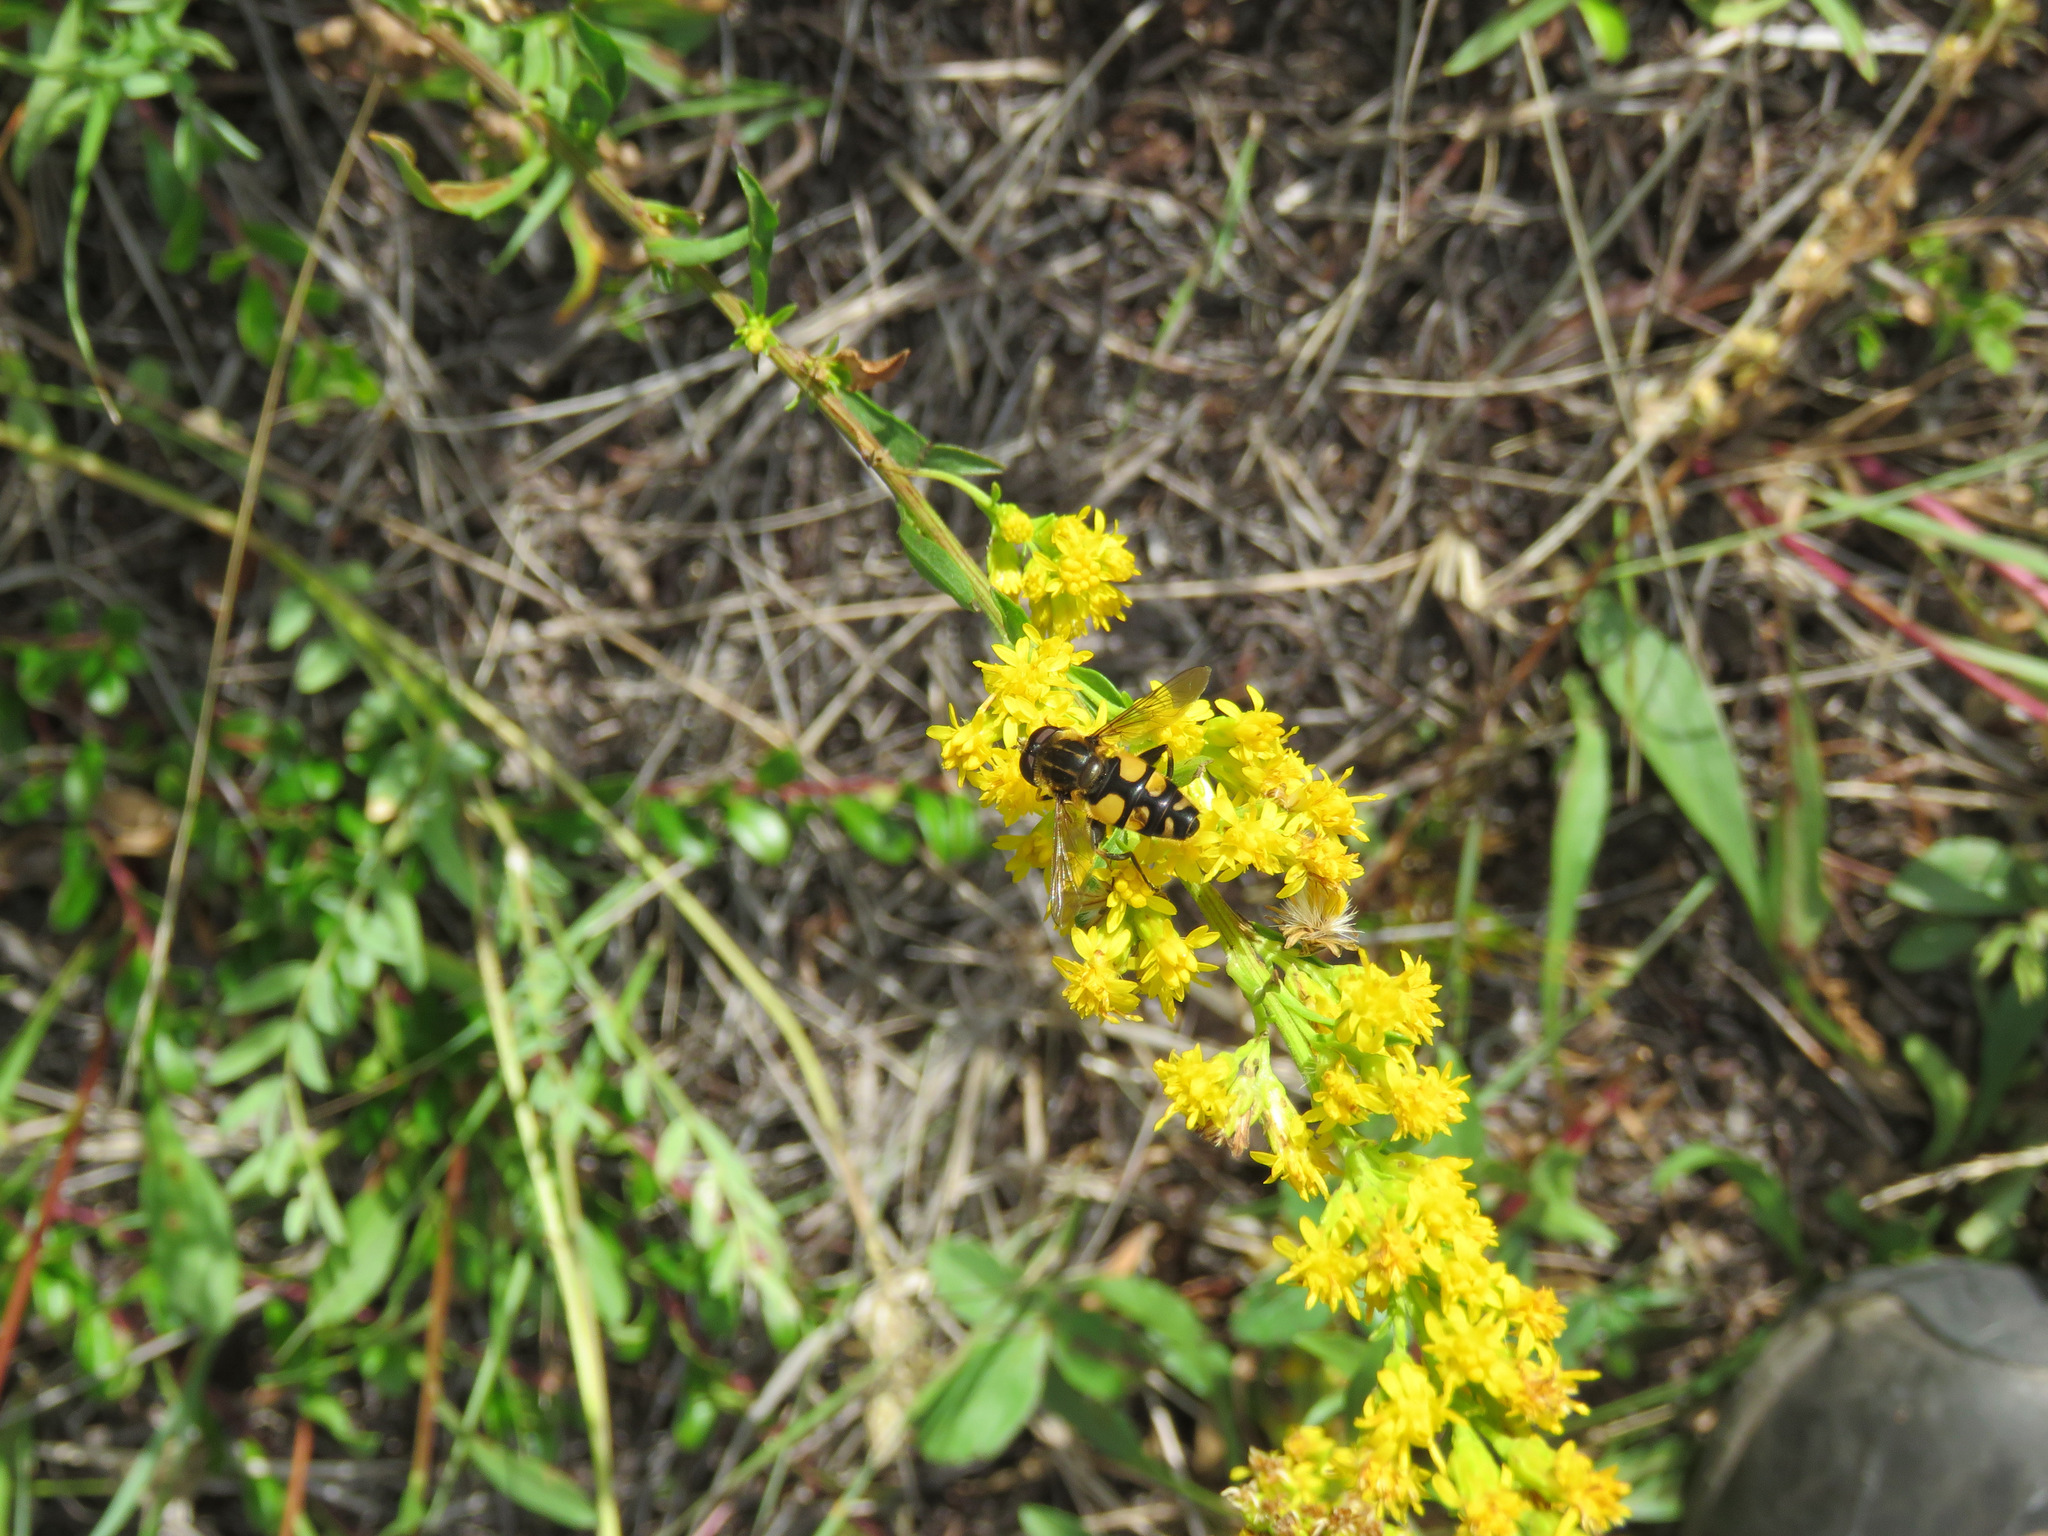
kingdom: Animalia
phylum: Arthropoda
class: Insecta
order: Diptera
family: Syrphidae
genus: Helophilus
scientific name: Helophilus obscurus
